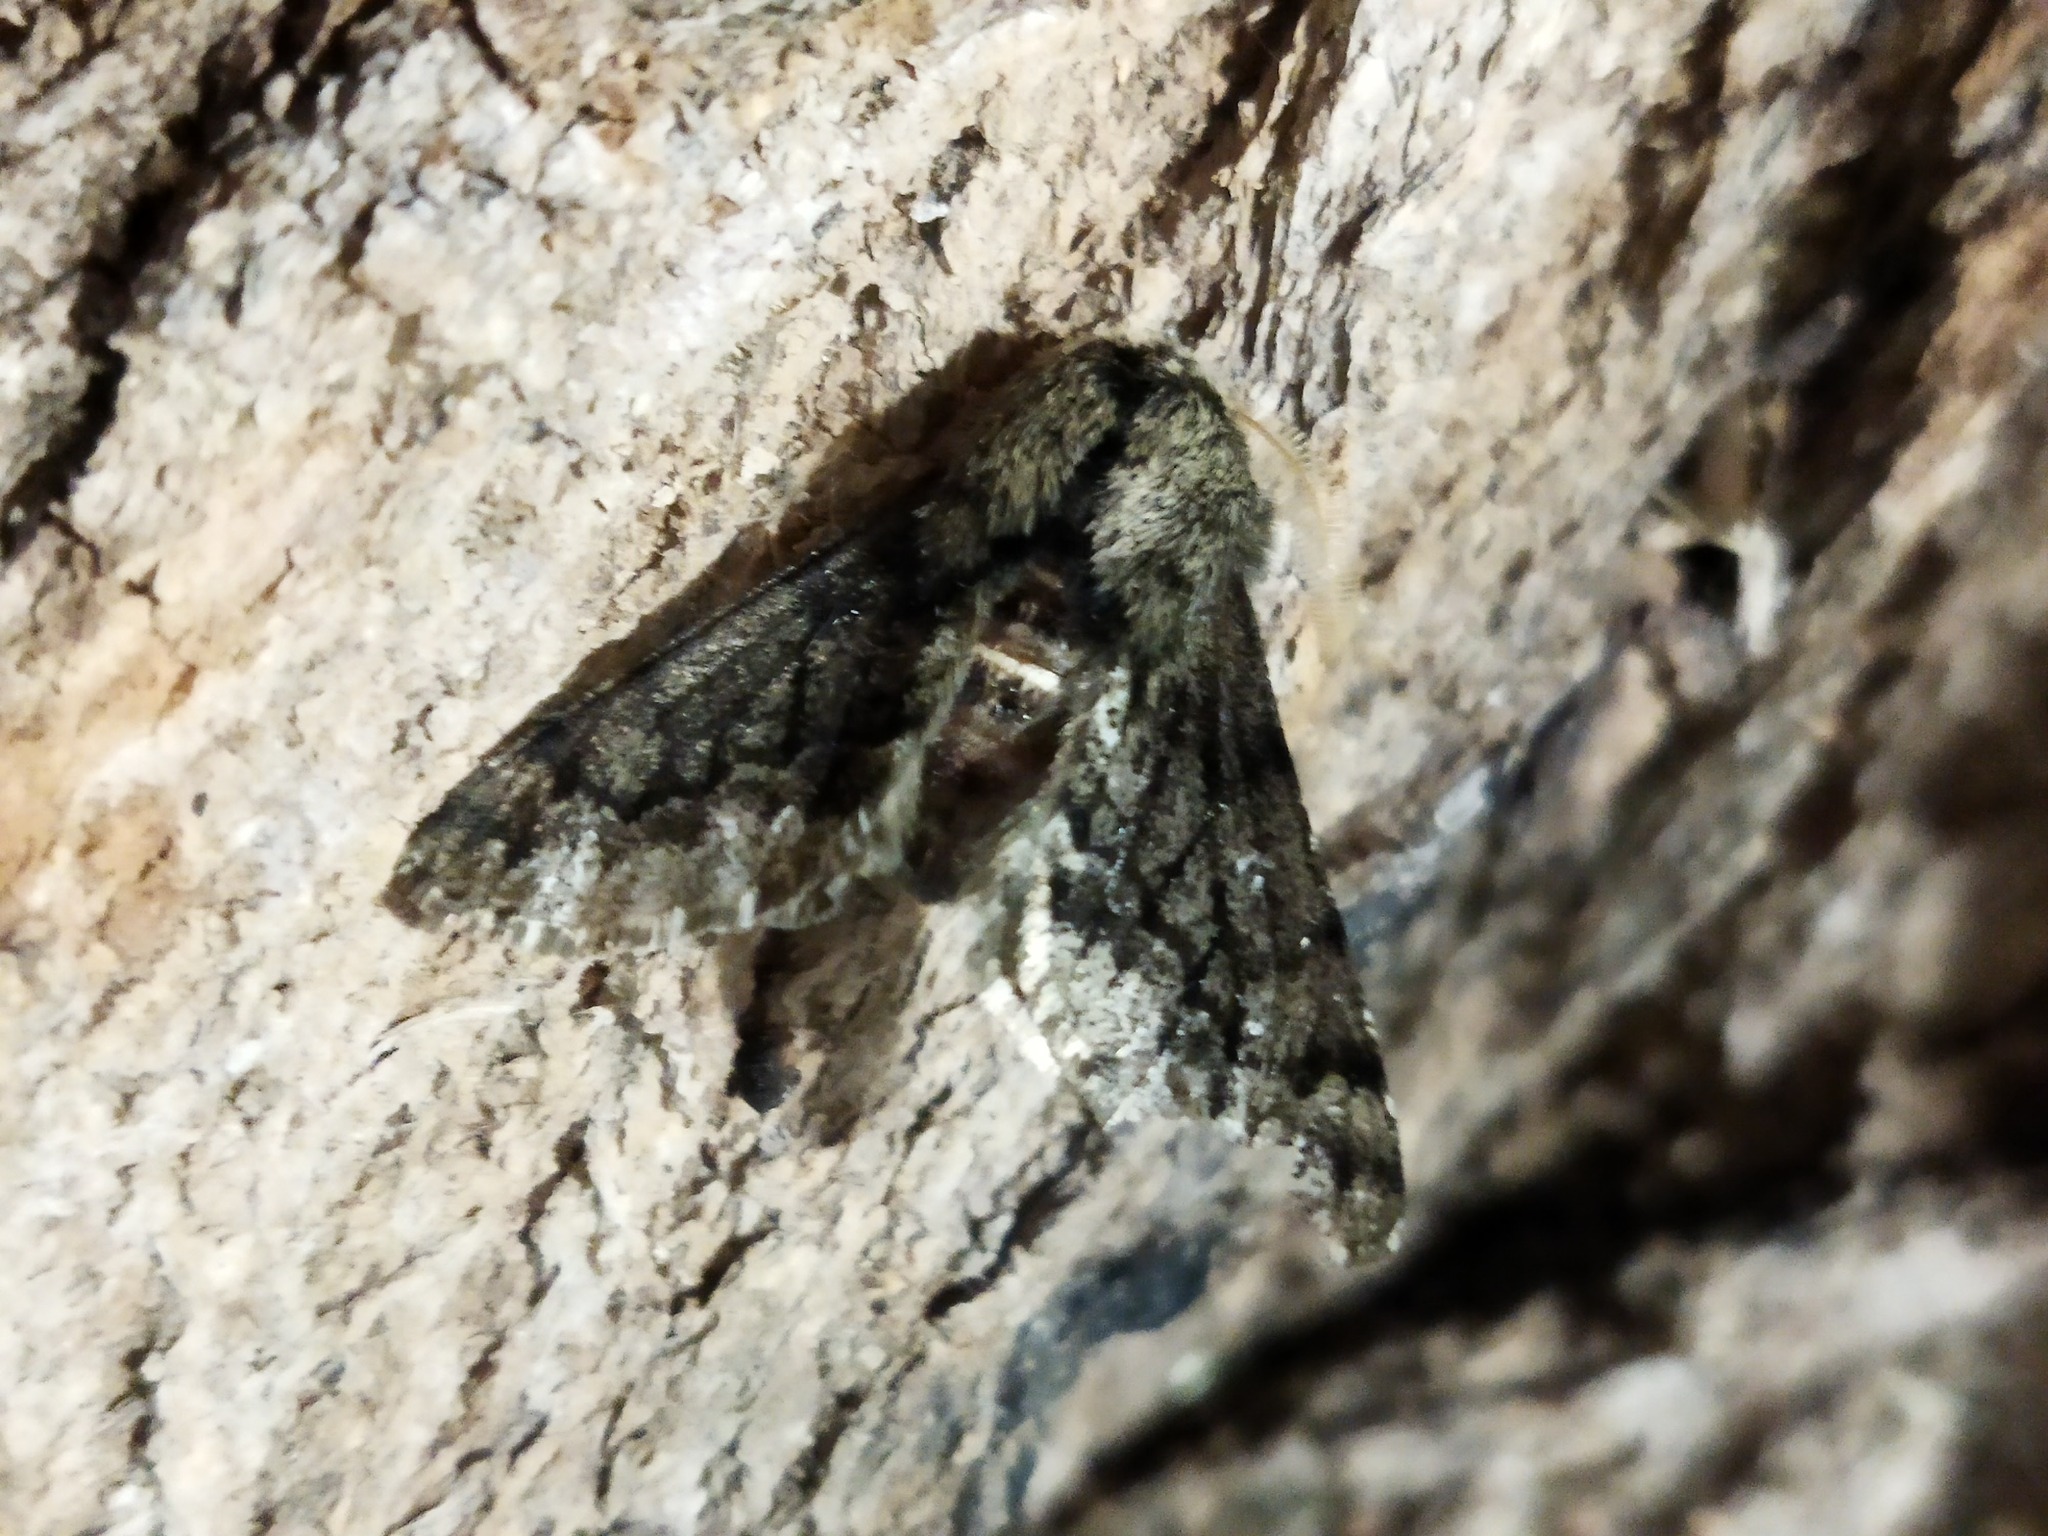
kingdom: Animalia
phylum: Arthropoda
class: Insecta
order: Lepidoptera
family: Geometridae
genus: Apocheima
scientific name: Apocheima hispidaria
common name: Small brindled beauty
